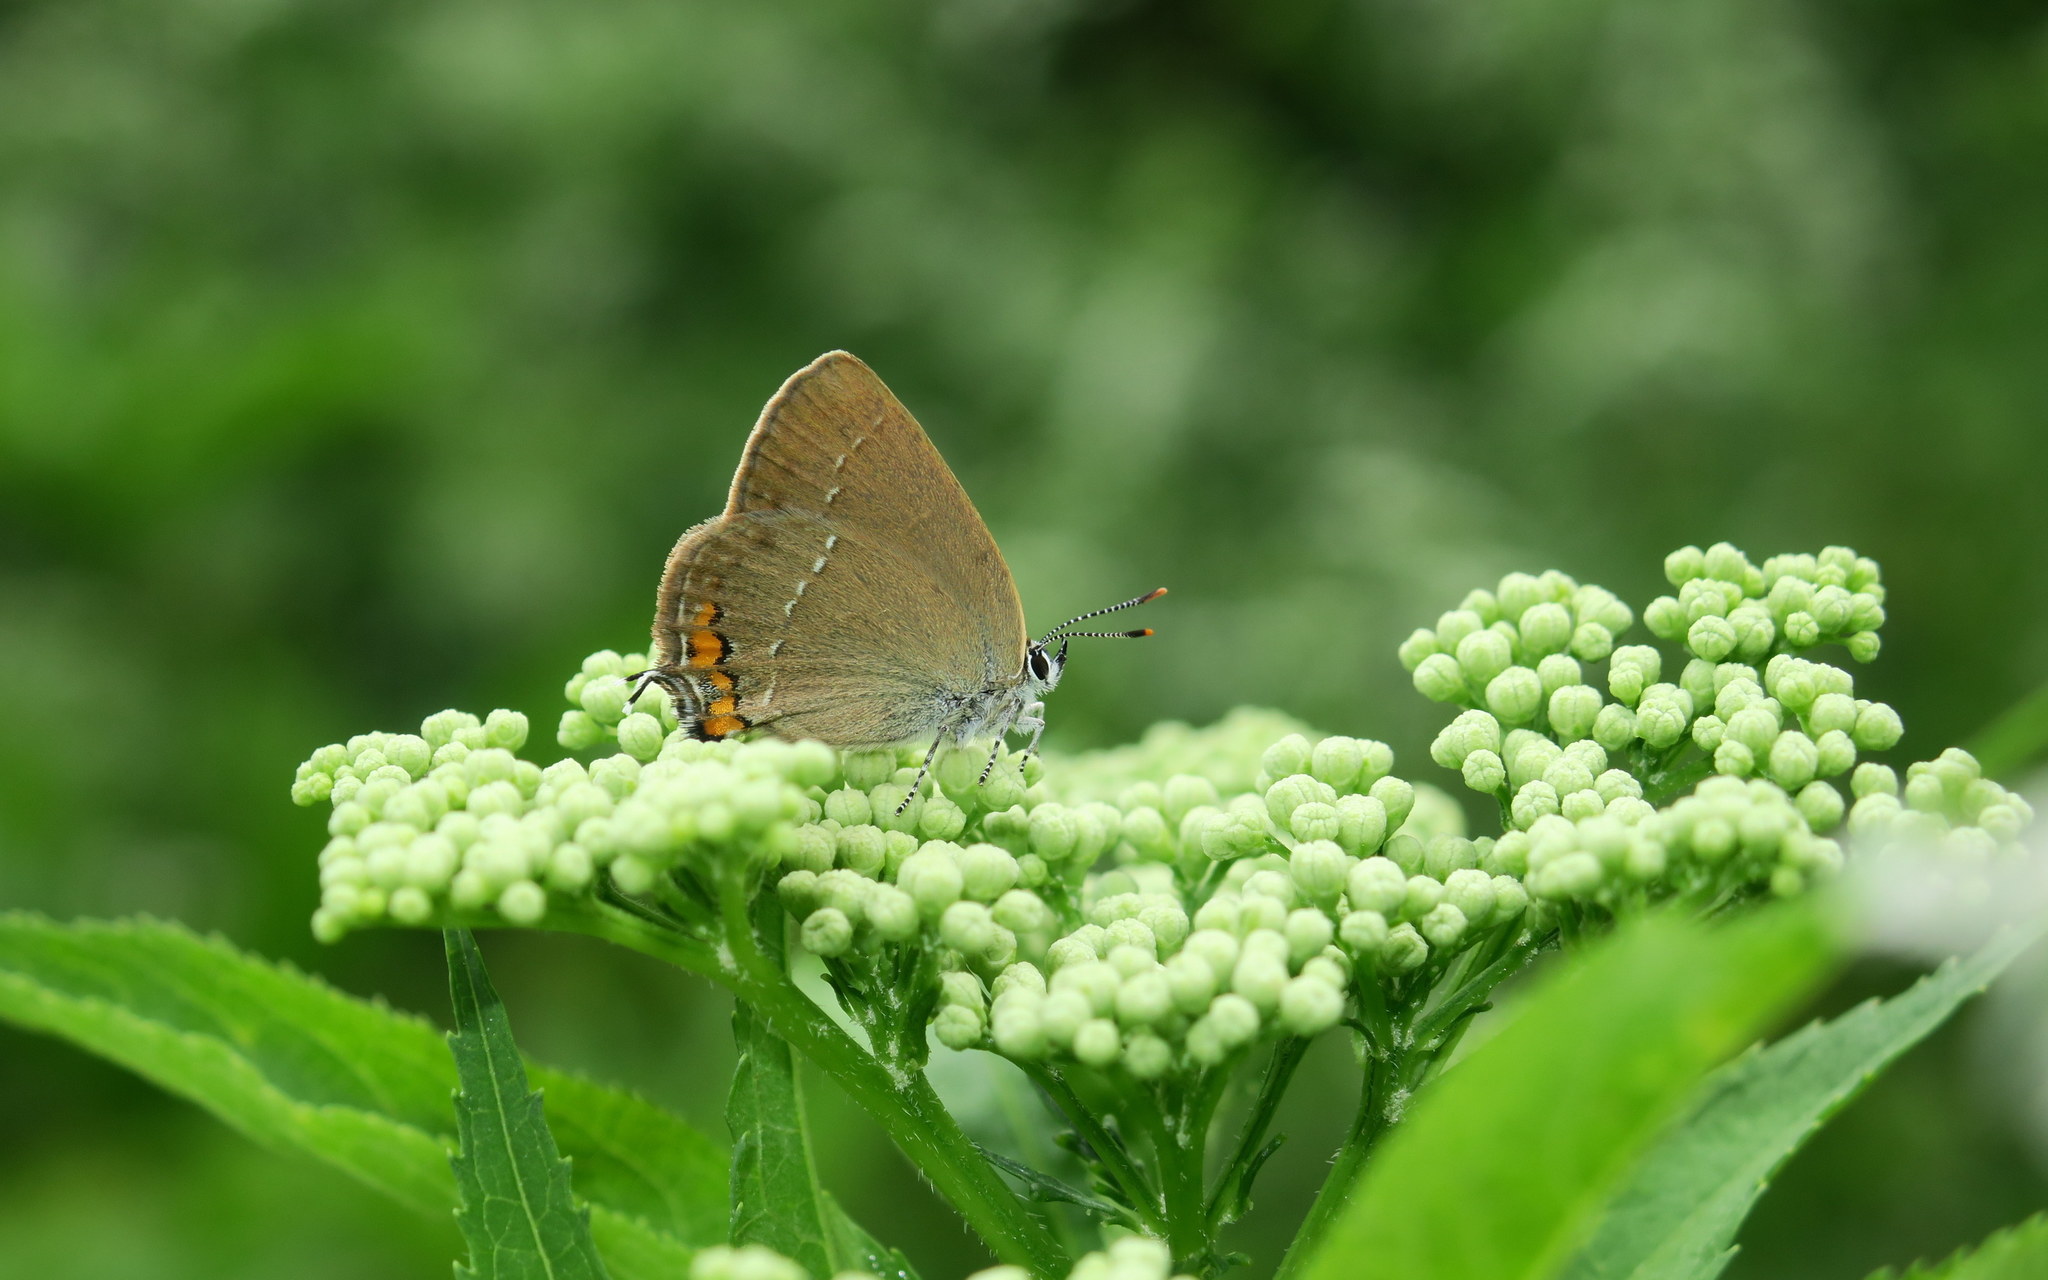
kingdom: Animalia
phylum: Arthropoda
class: Insecta
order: Lepidoptera
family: Lycaenidae
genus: Strymon
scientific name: Strymon acaciae
